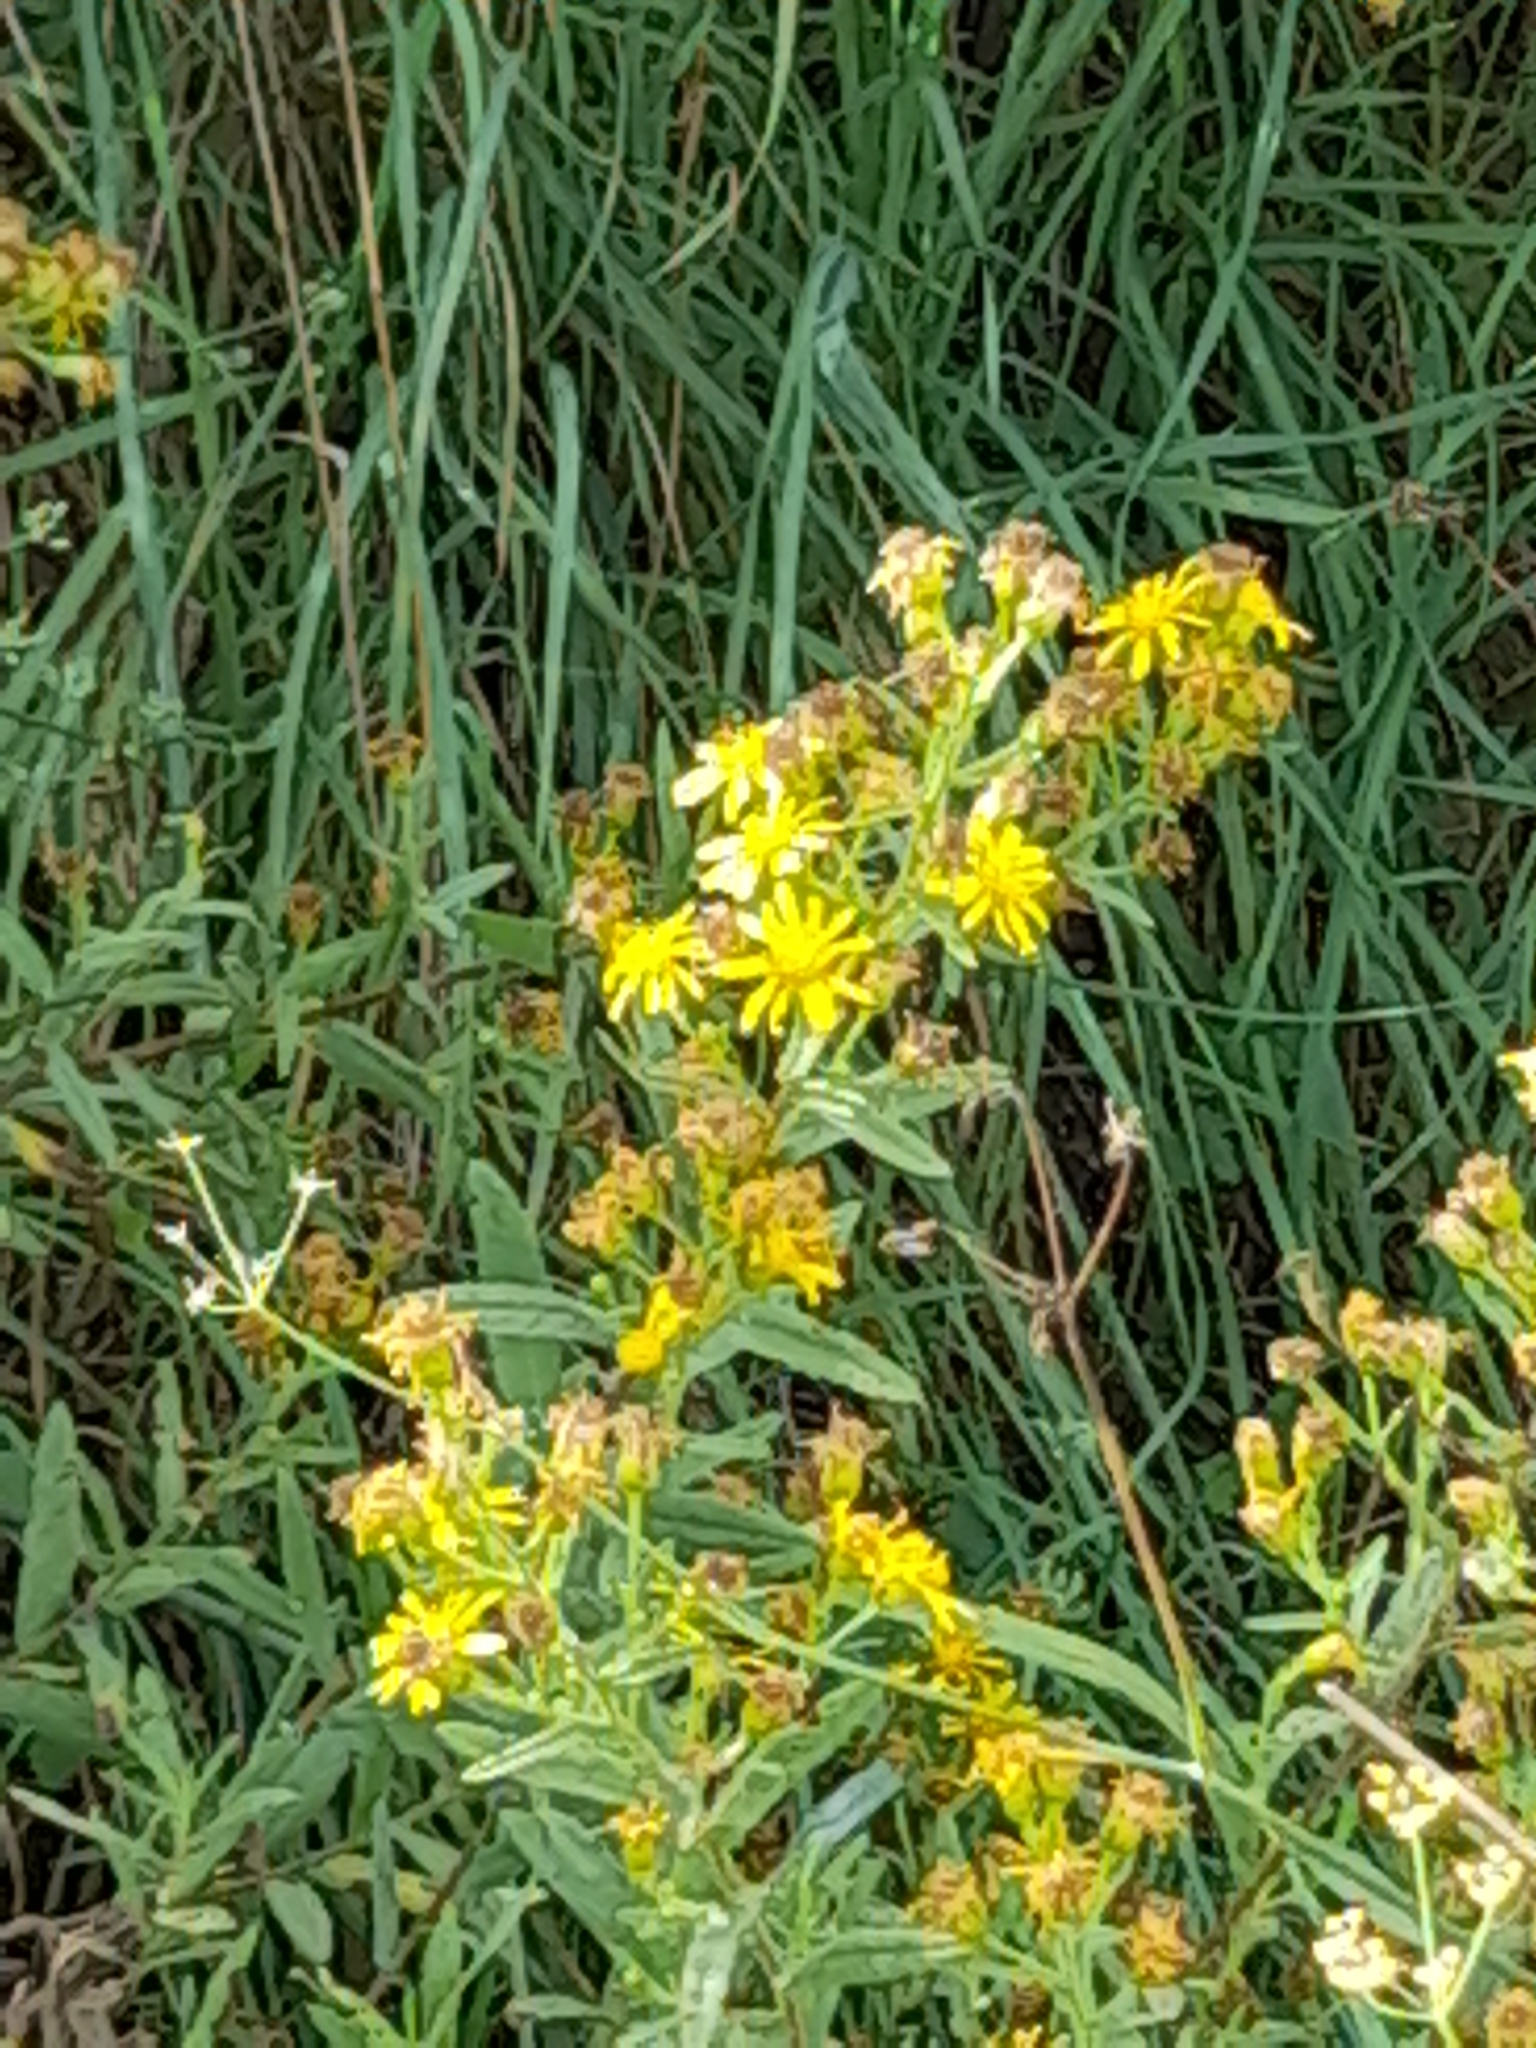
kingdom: Plantae
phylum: Tracheophyta
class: Magnoliopsida
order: Asterales
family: Asteraceae
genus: Dittrichia
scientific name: Dittrichia viscosa
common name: Woody fleabane
